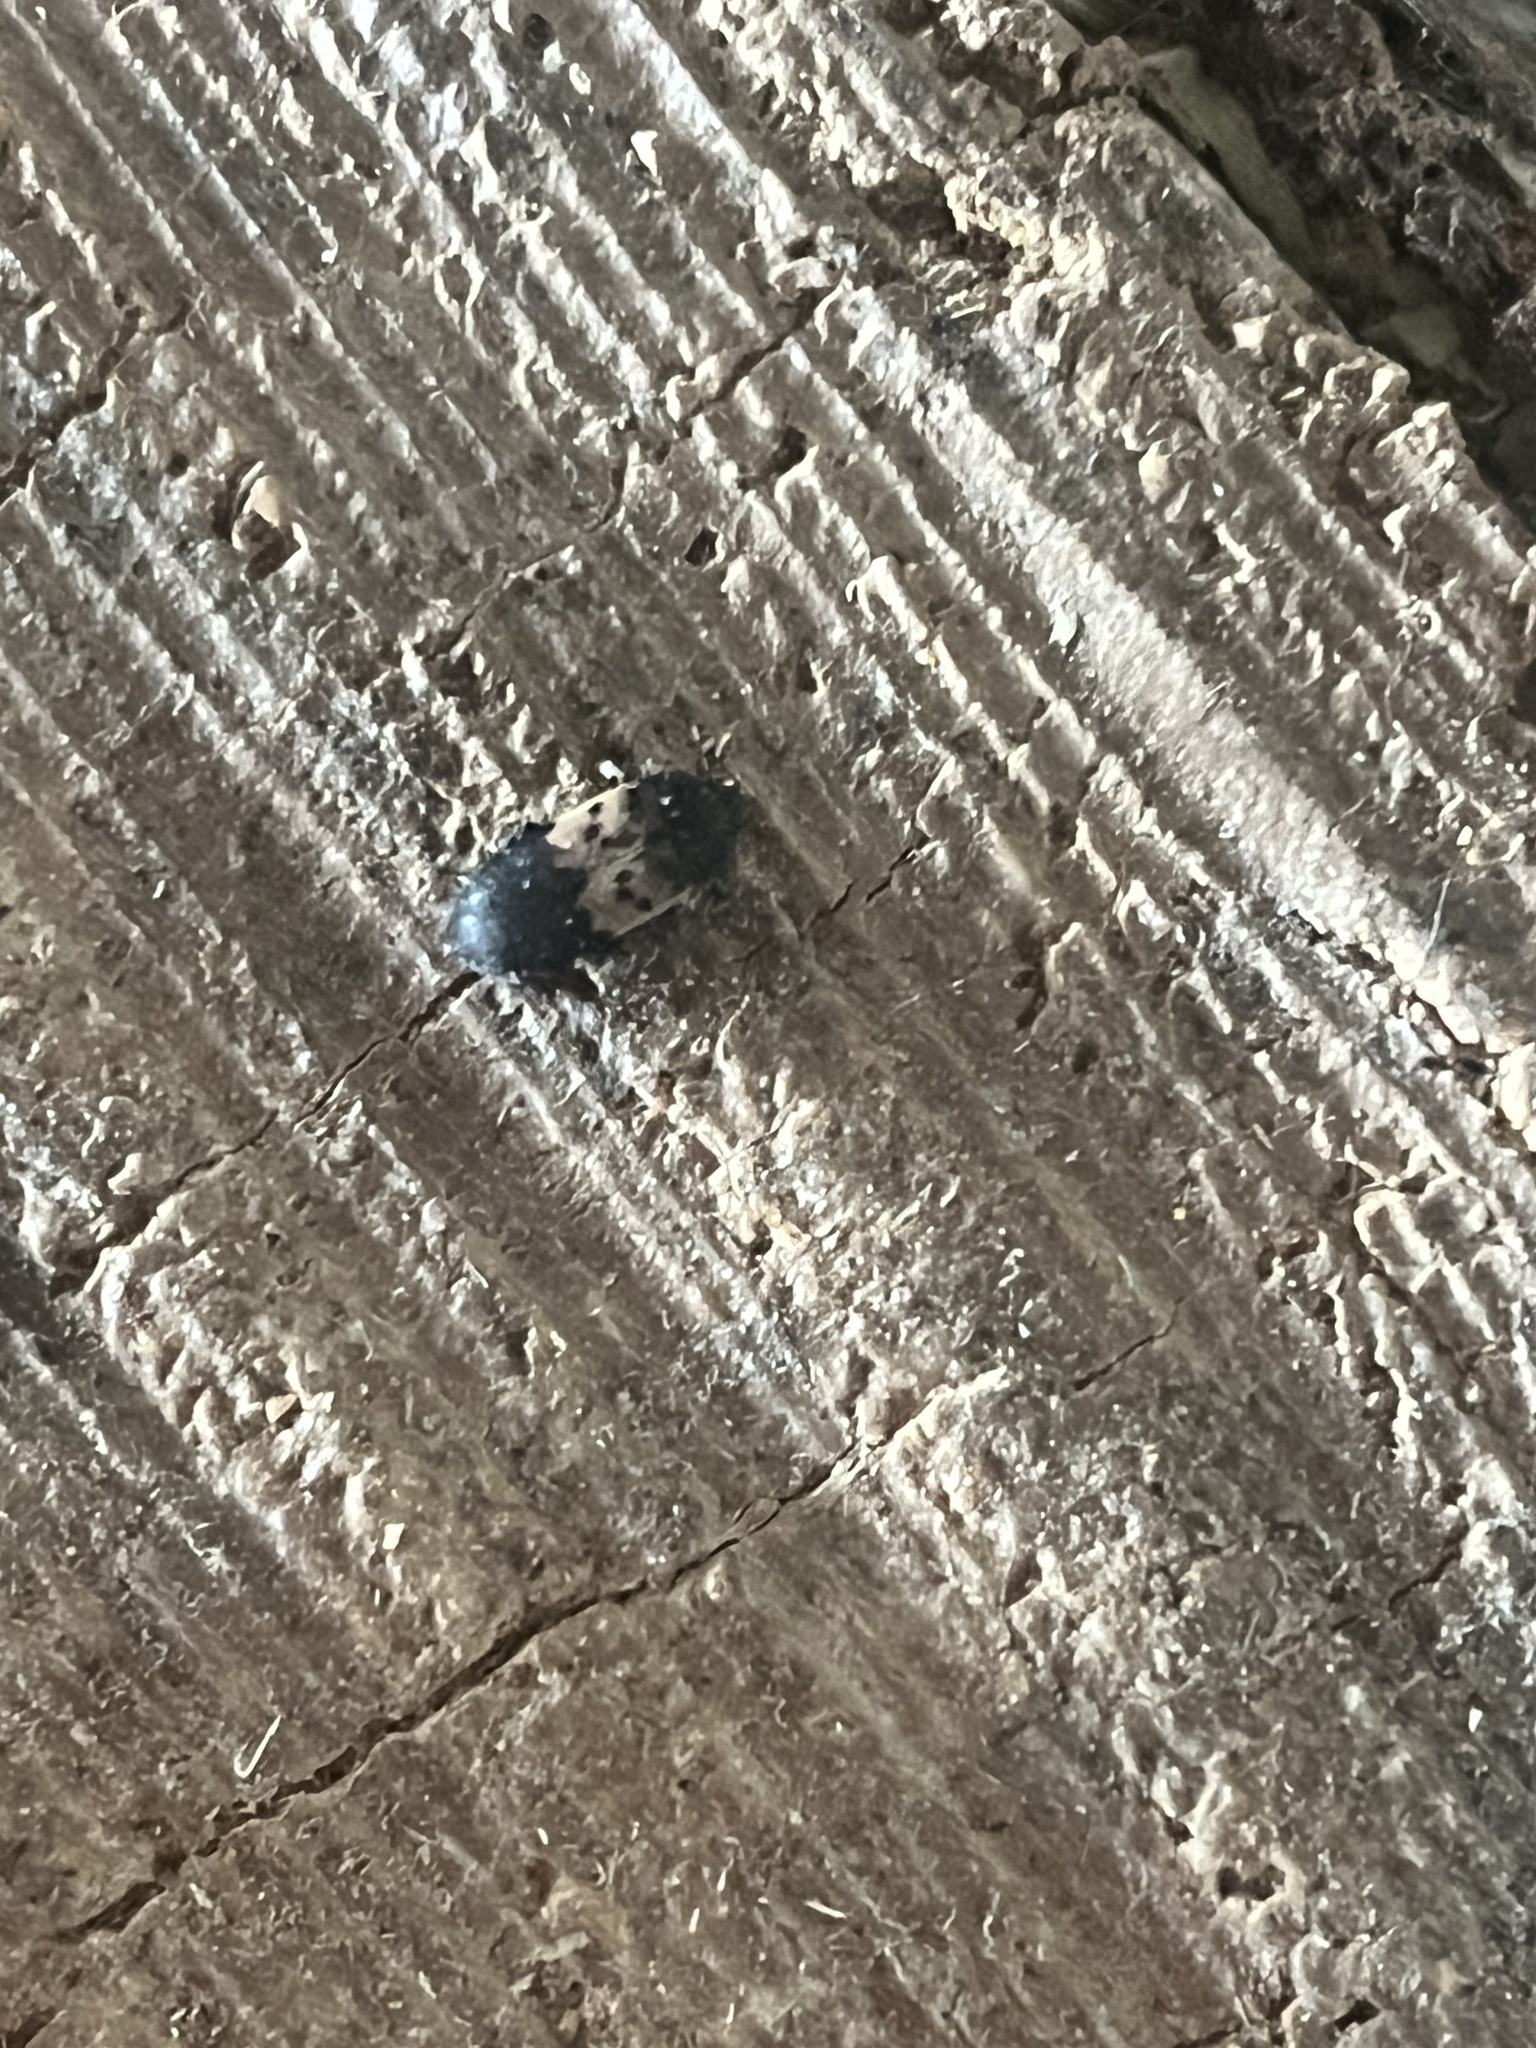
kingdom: Animalia
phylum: Arthropoda
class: Insecta
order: Coleoptera
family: Dermestidae
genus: Dermestes
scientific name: Dermestes lardarius
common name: Larder beetle
